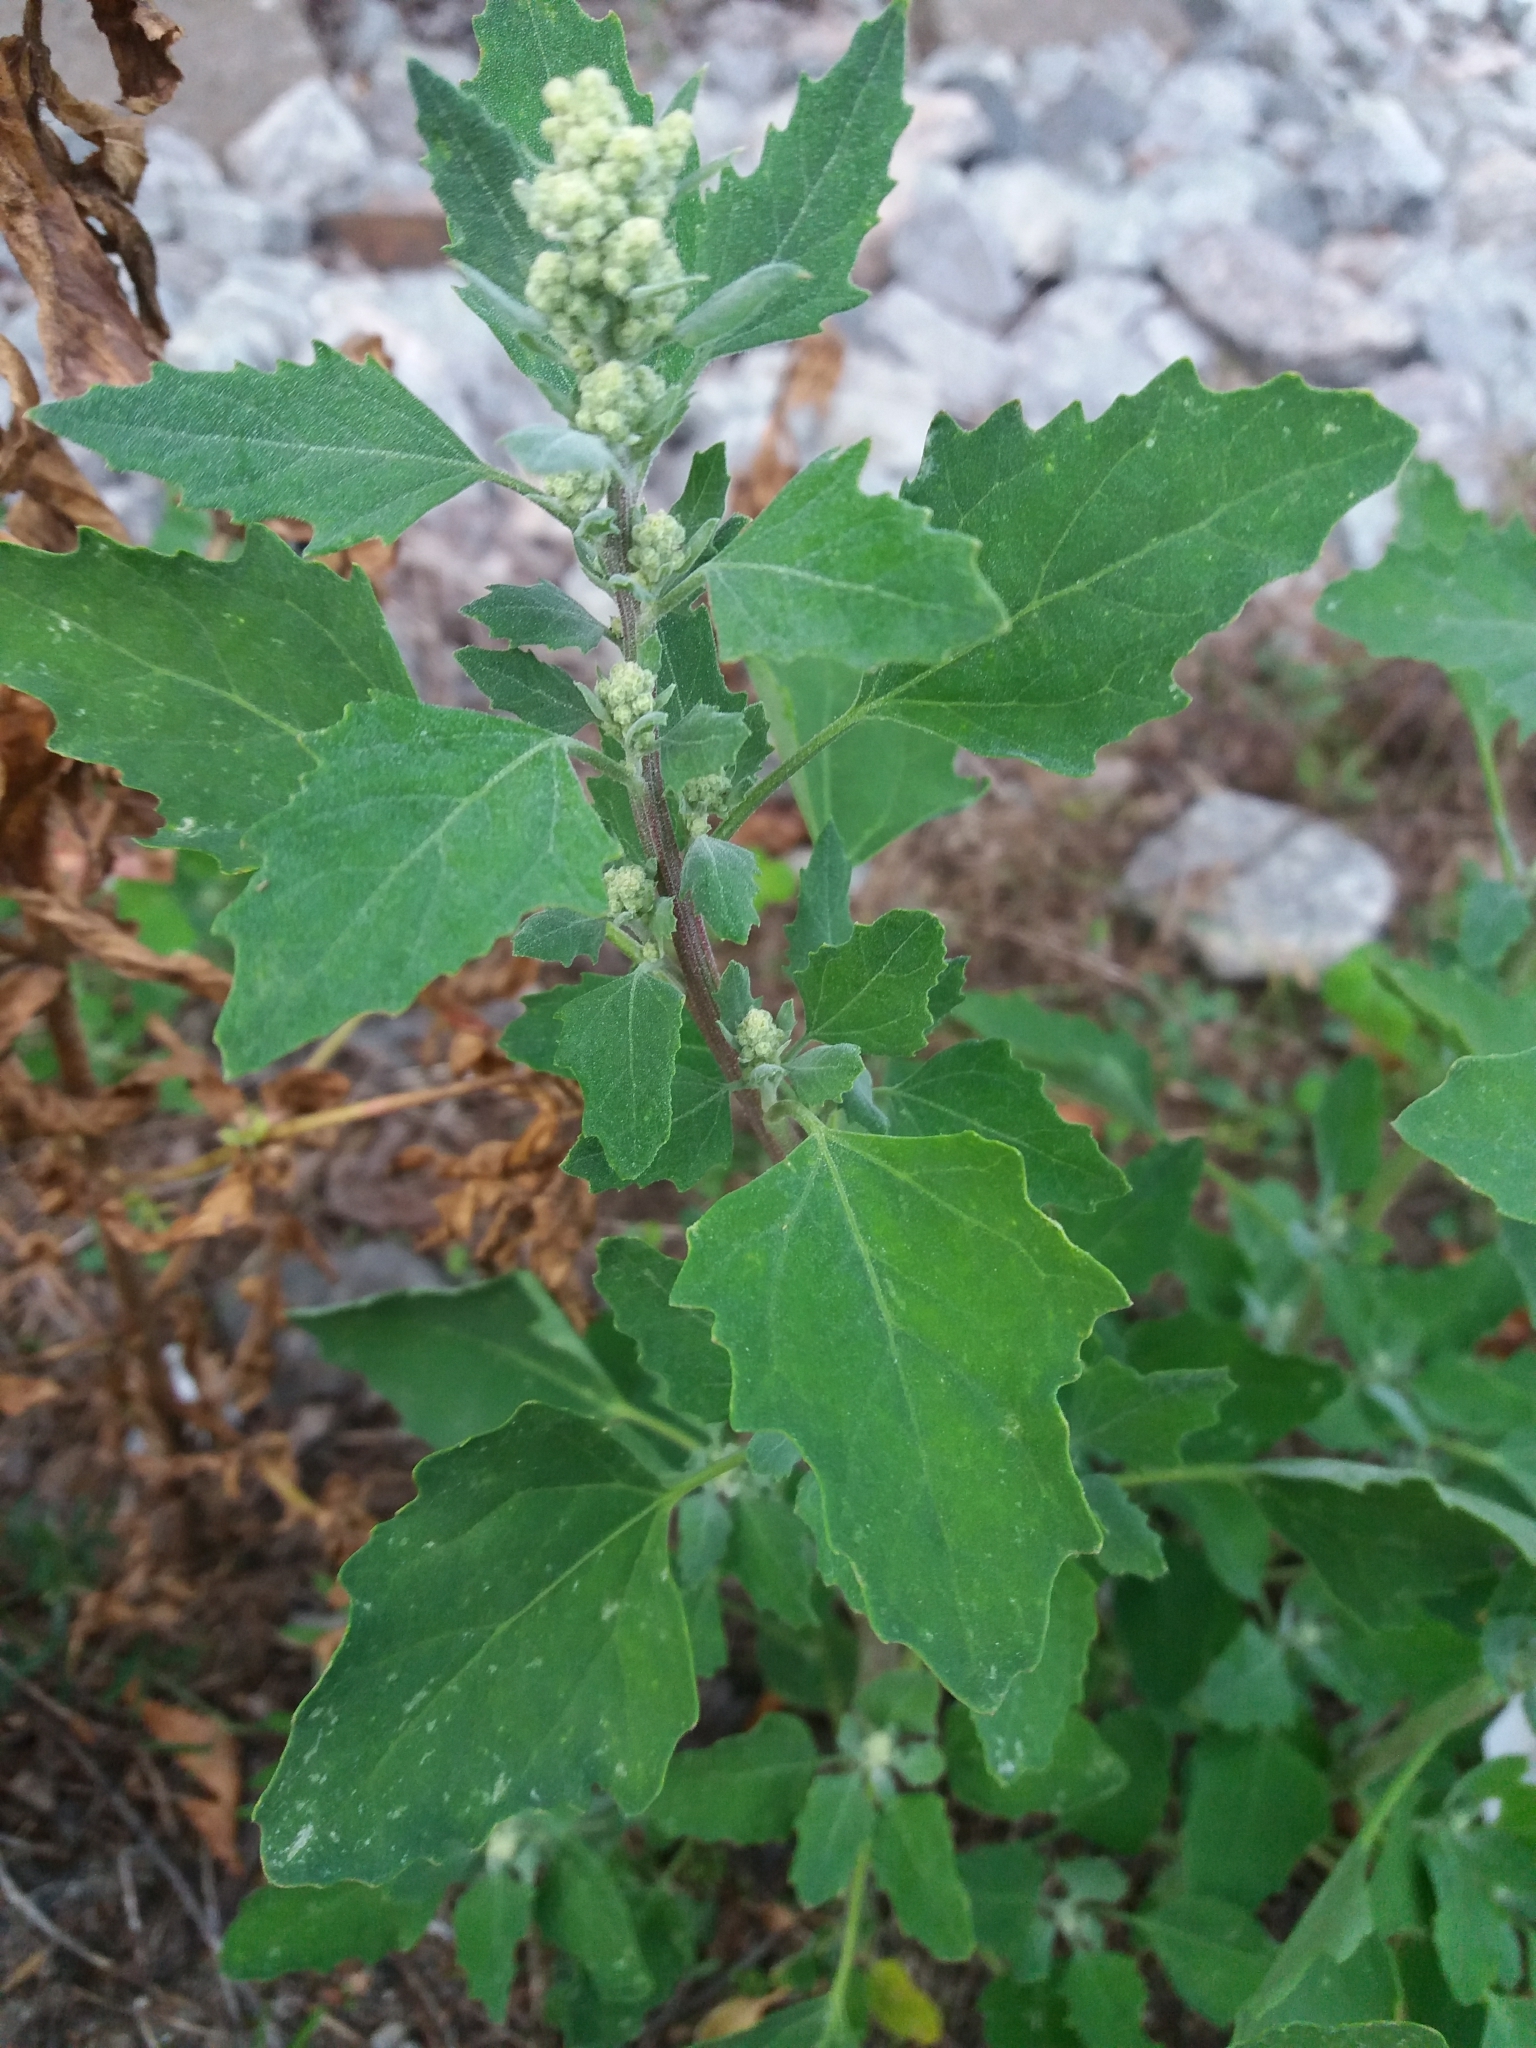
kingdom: Plantae
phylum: Tracheophyta
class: Magnoliopsida
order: Caryophyllales
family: Amaranthaceae
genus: Chenopodium
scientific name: Chenopodium album
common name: Fat-hen
